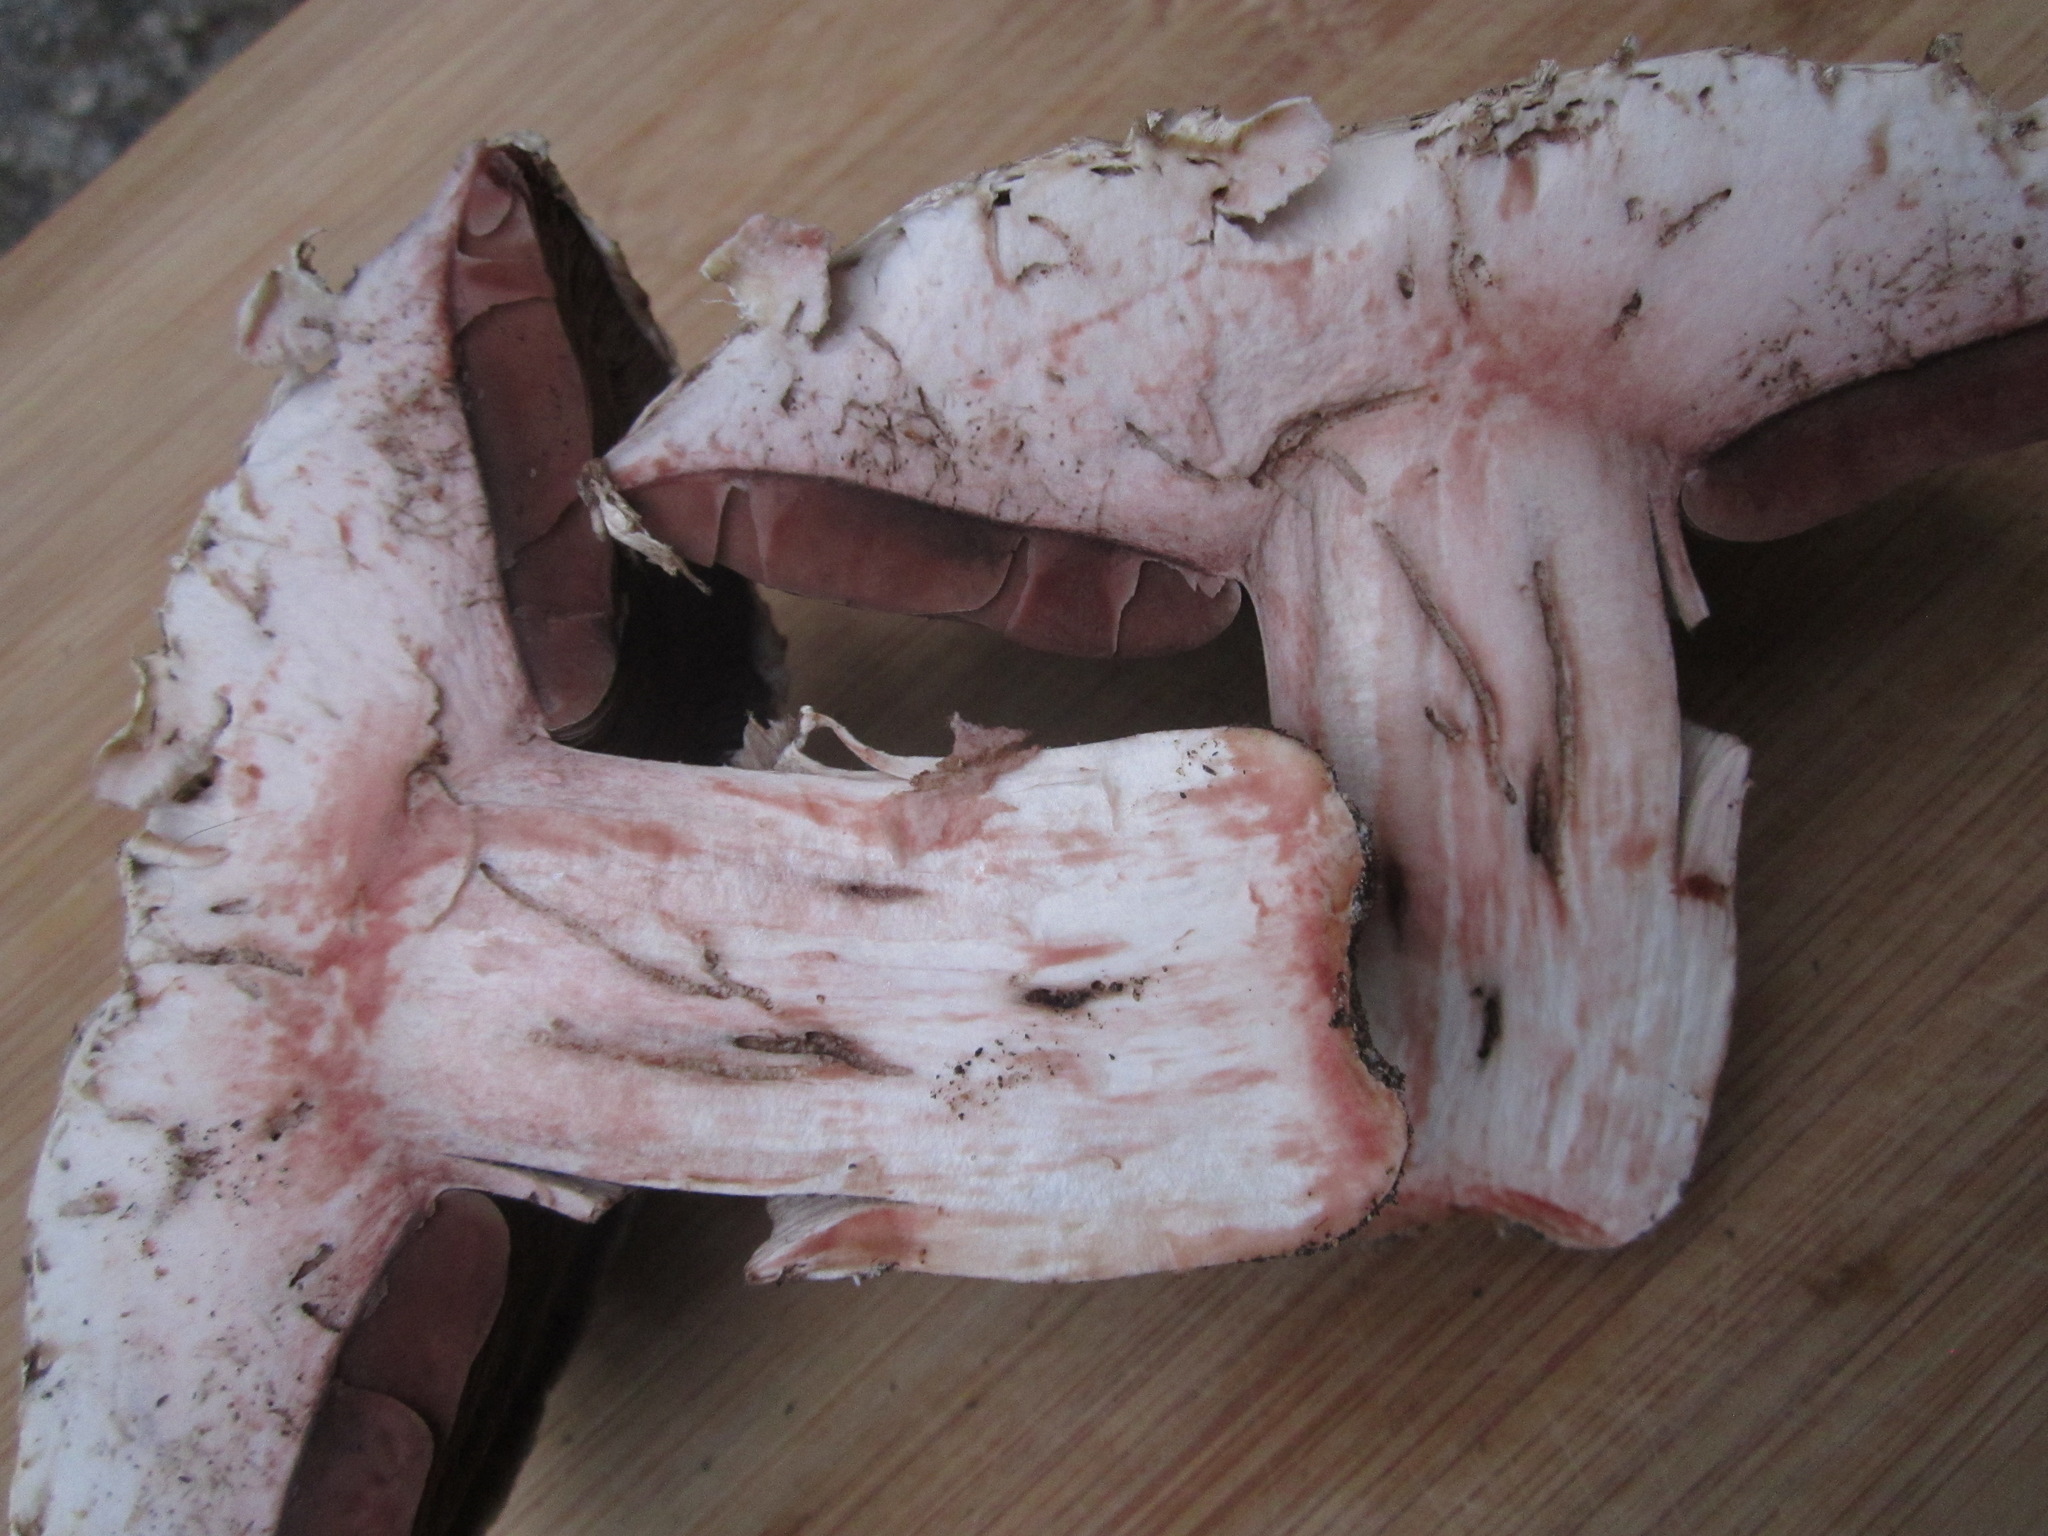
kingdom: Fungi
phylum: Basidiomycota
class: Agaricomycetes
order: Agaricales
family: Agaricaceae
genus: Agaricus
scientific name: Agaricus bernardii
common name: Salty mushroom
